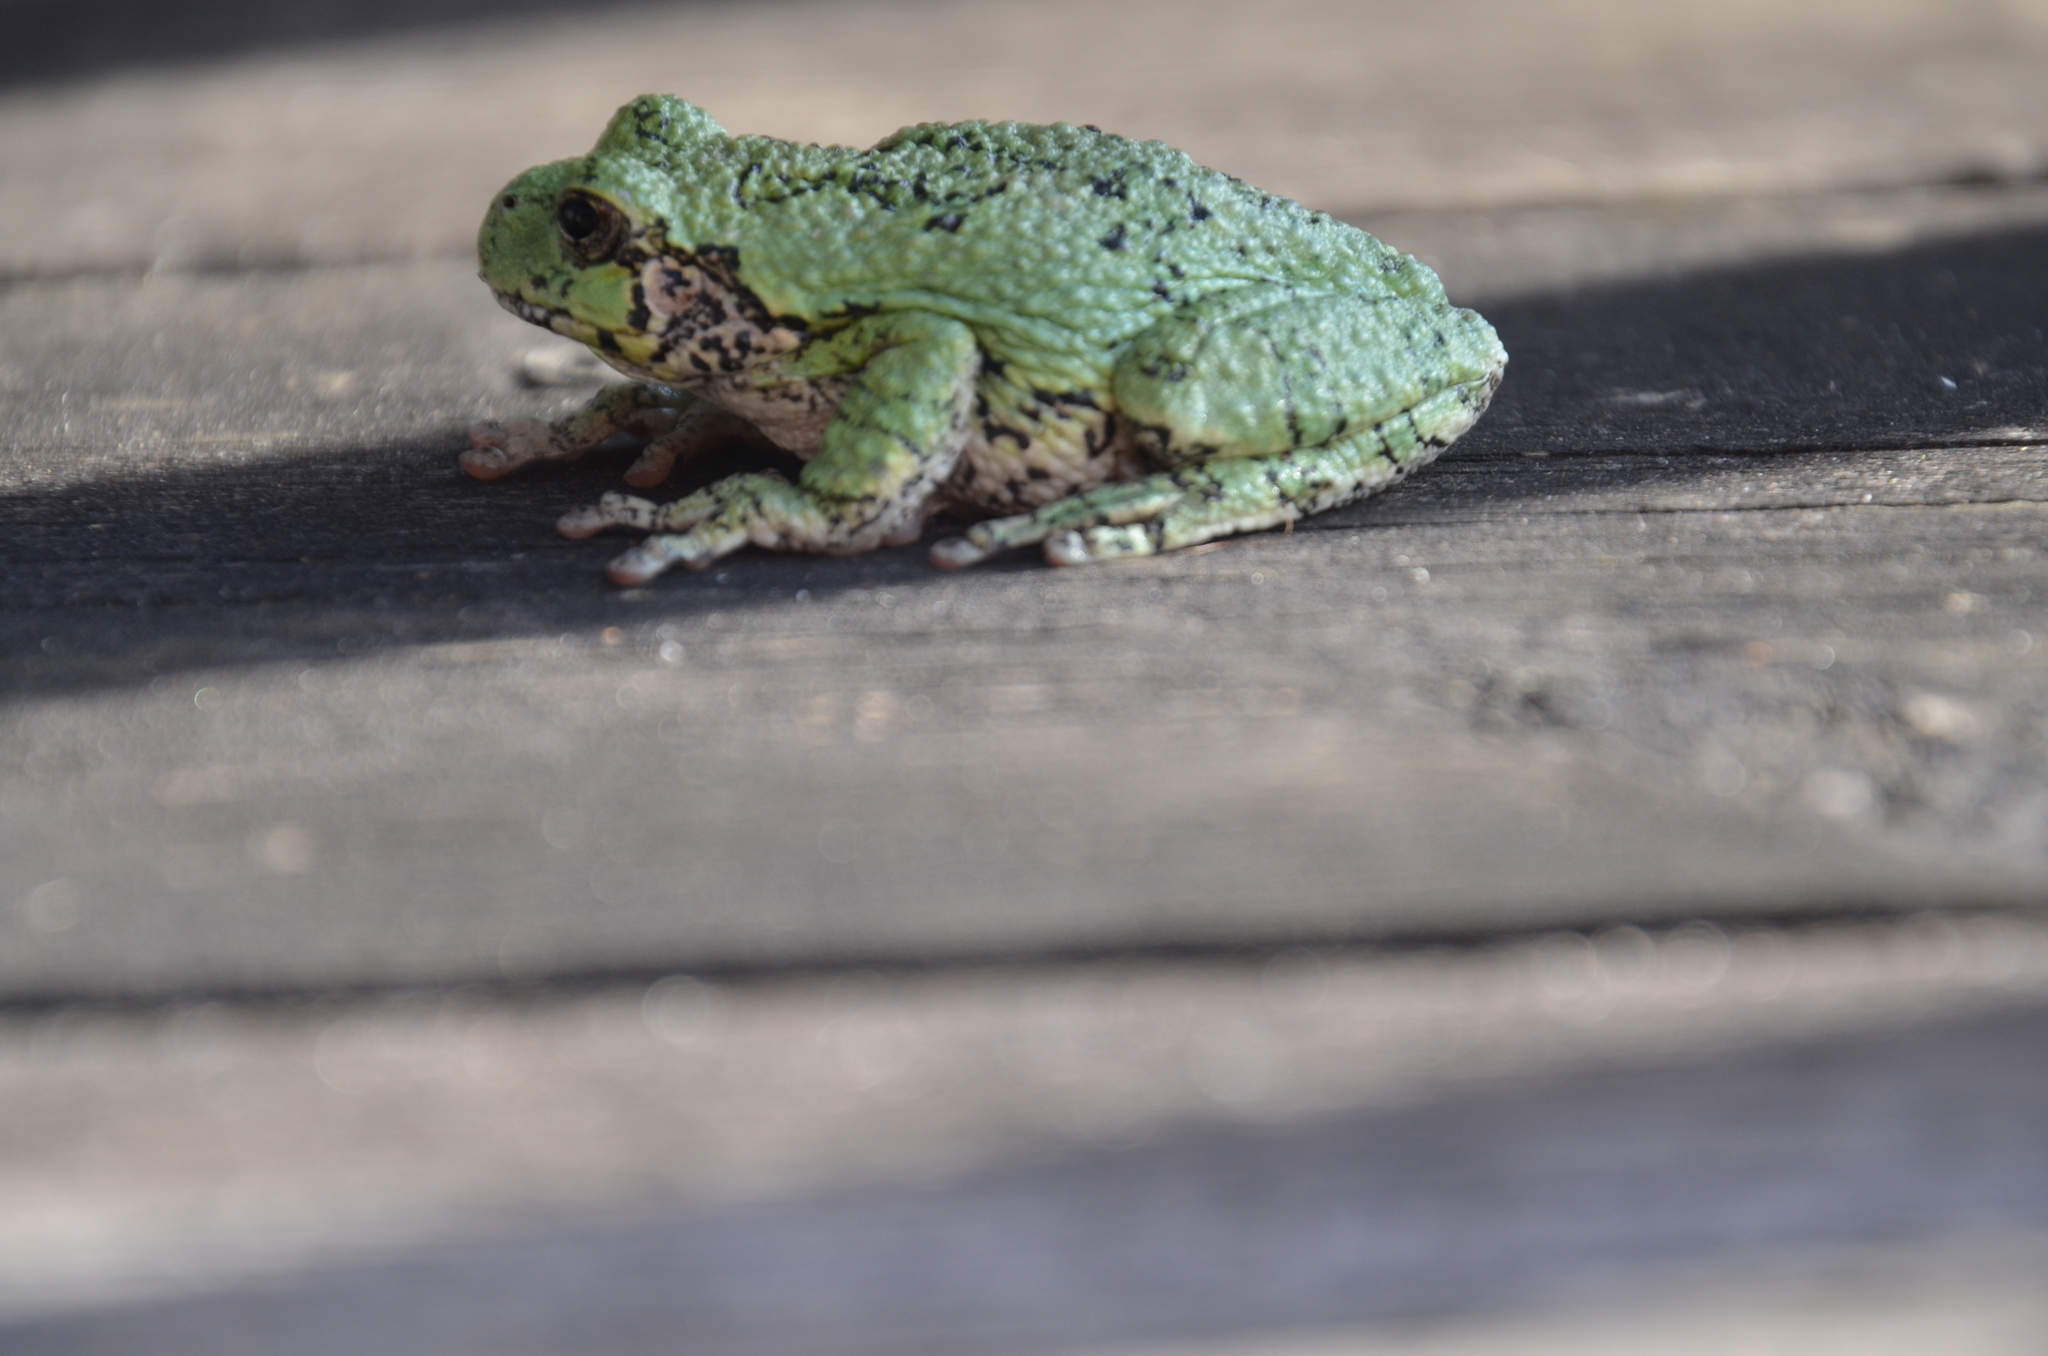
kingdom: Animalia
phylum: Chordata
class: Amphibia
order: Anura
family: Hylidae
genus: Dryophytes
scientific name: Dryophytes versicolor
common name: Gray treefrog
